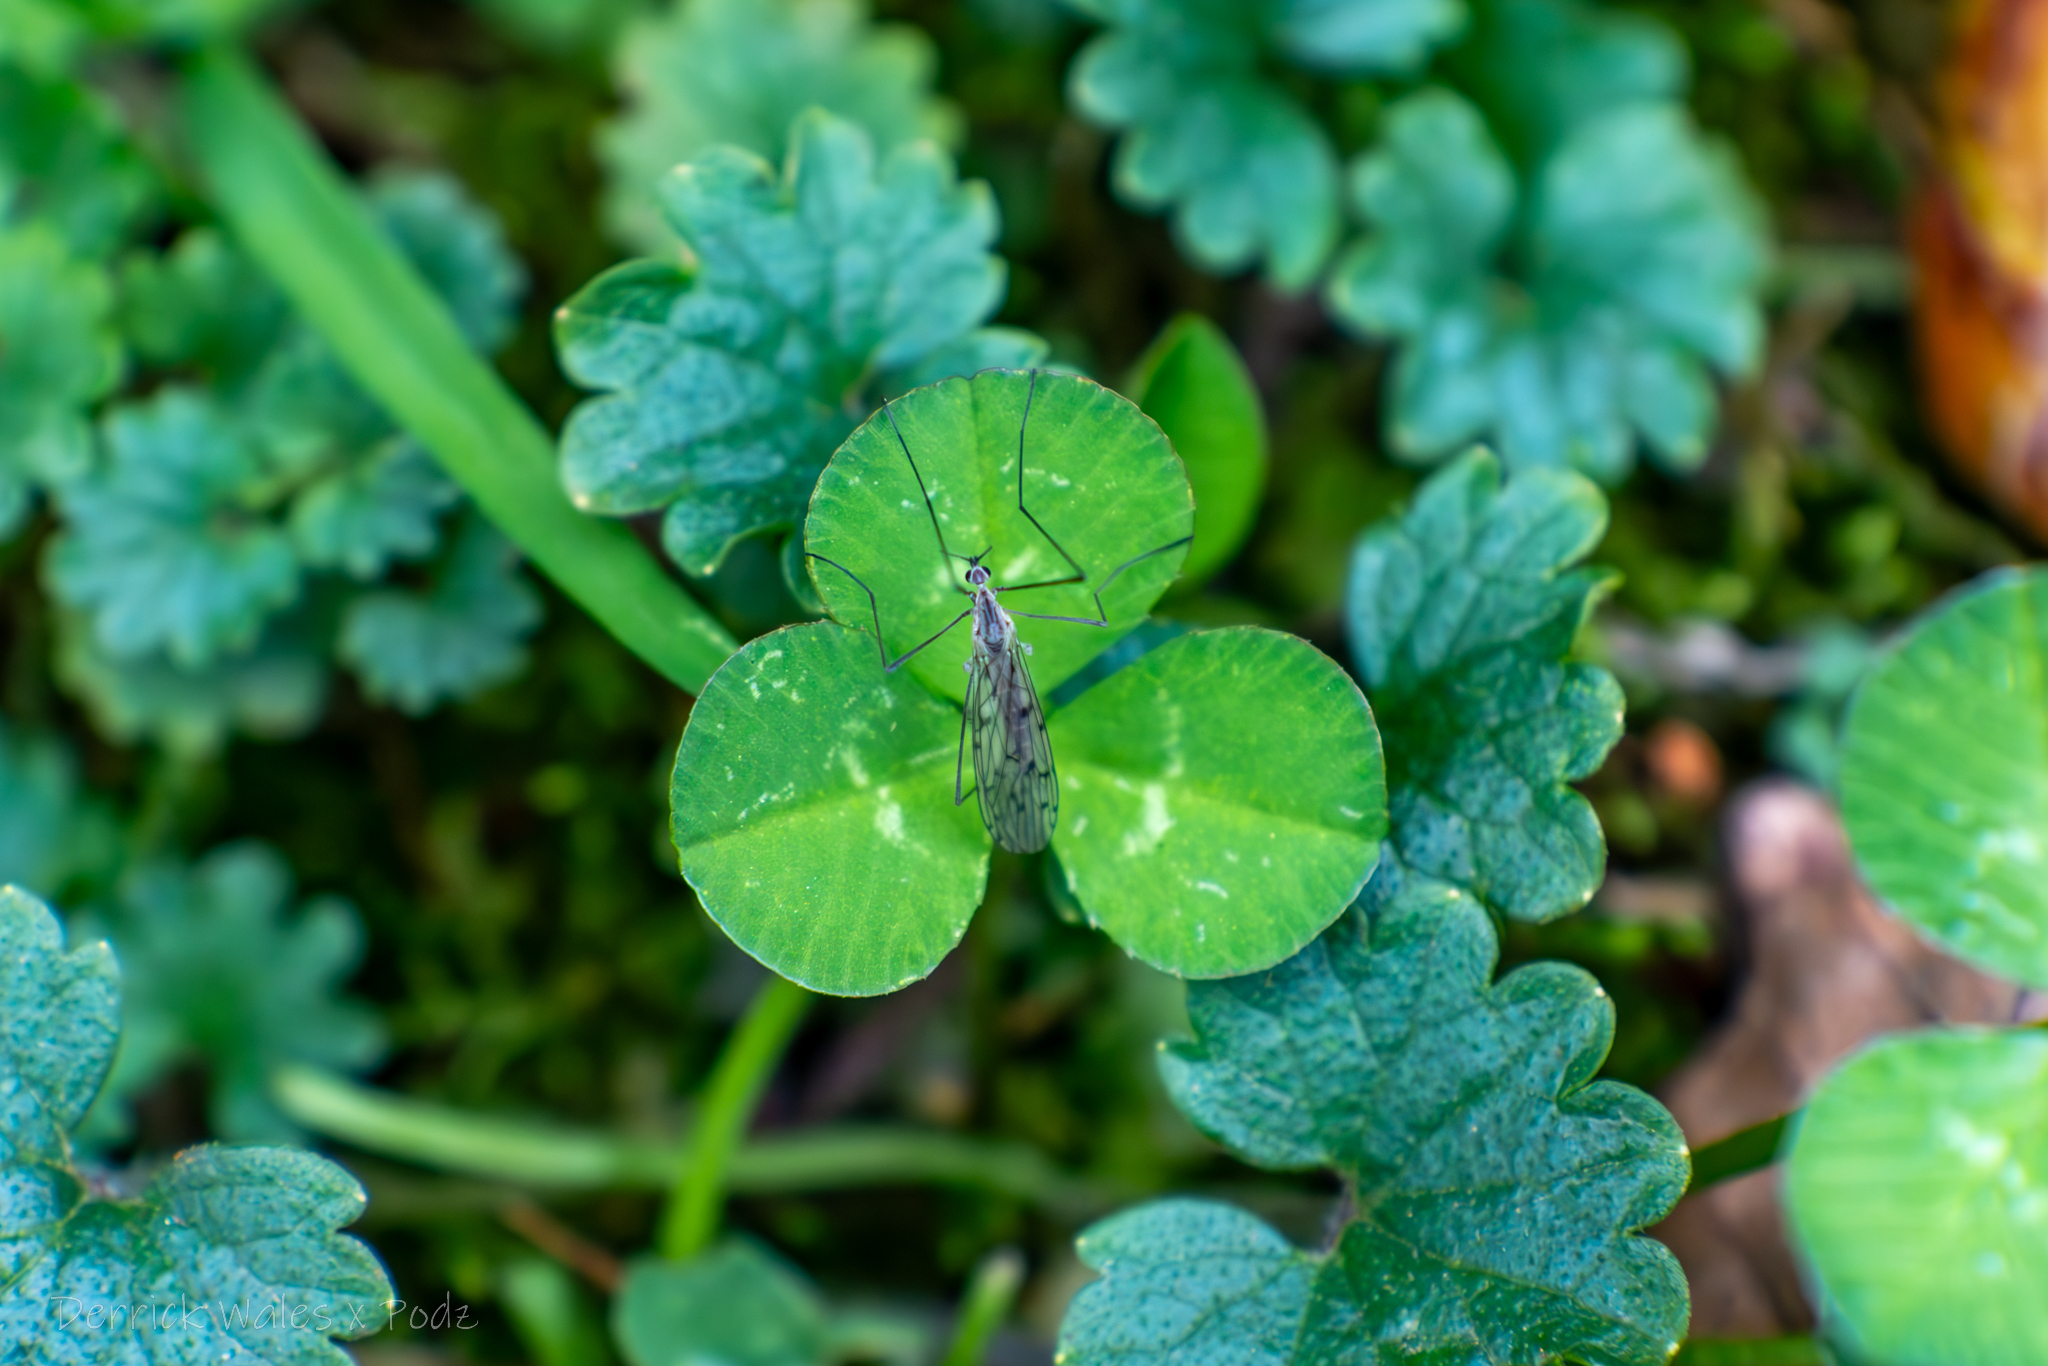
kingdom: Animalia
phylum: Arthropoda
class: Insecta
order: Diptera
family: Limoniidae
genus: Symplecta
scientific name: Symplecta cana
